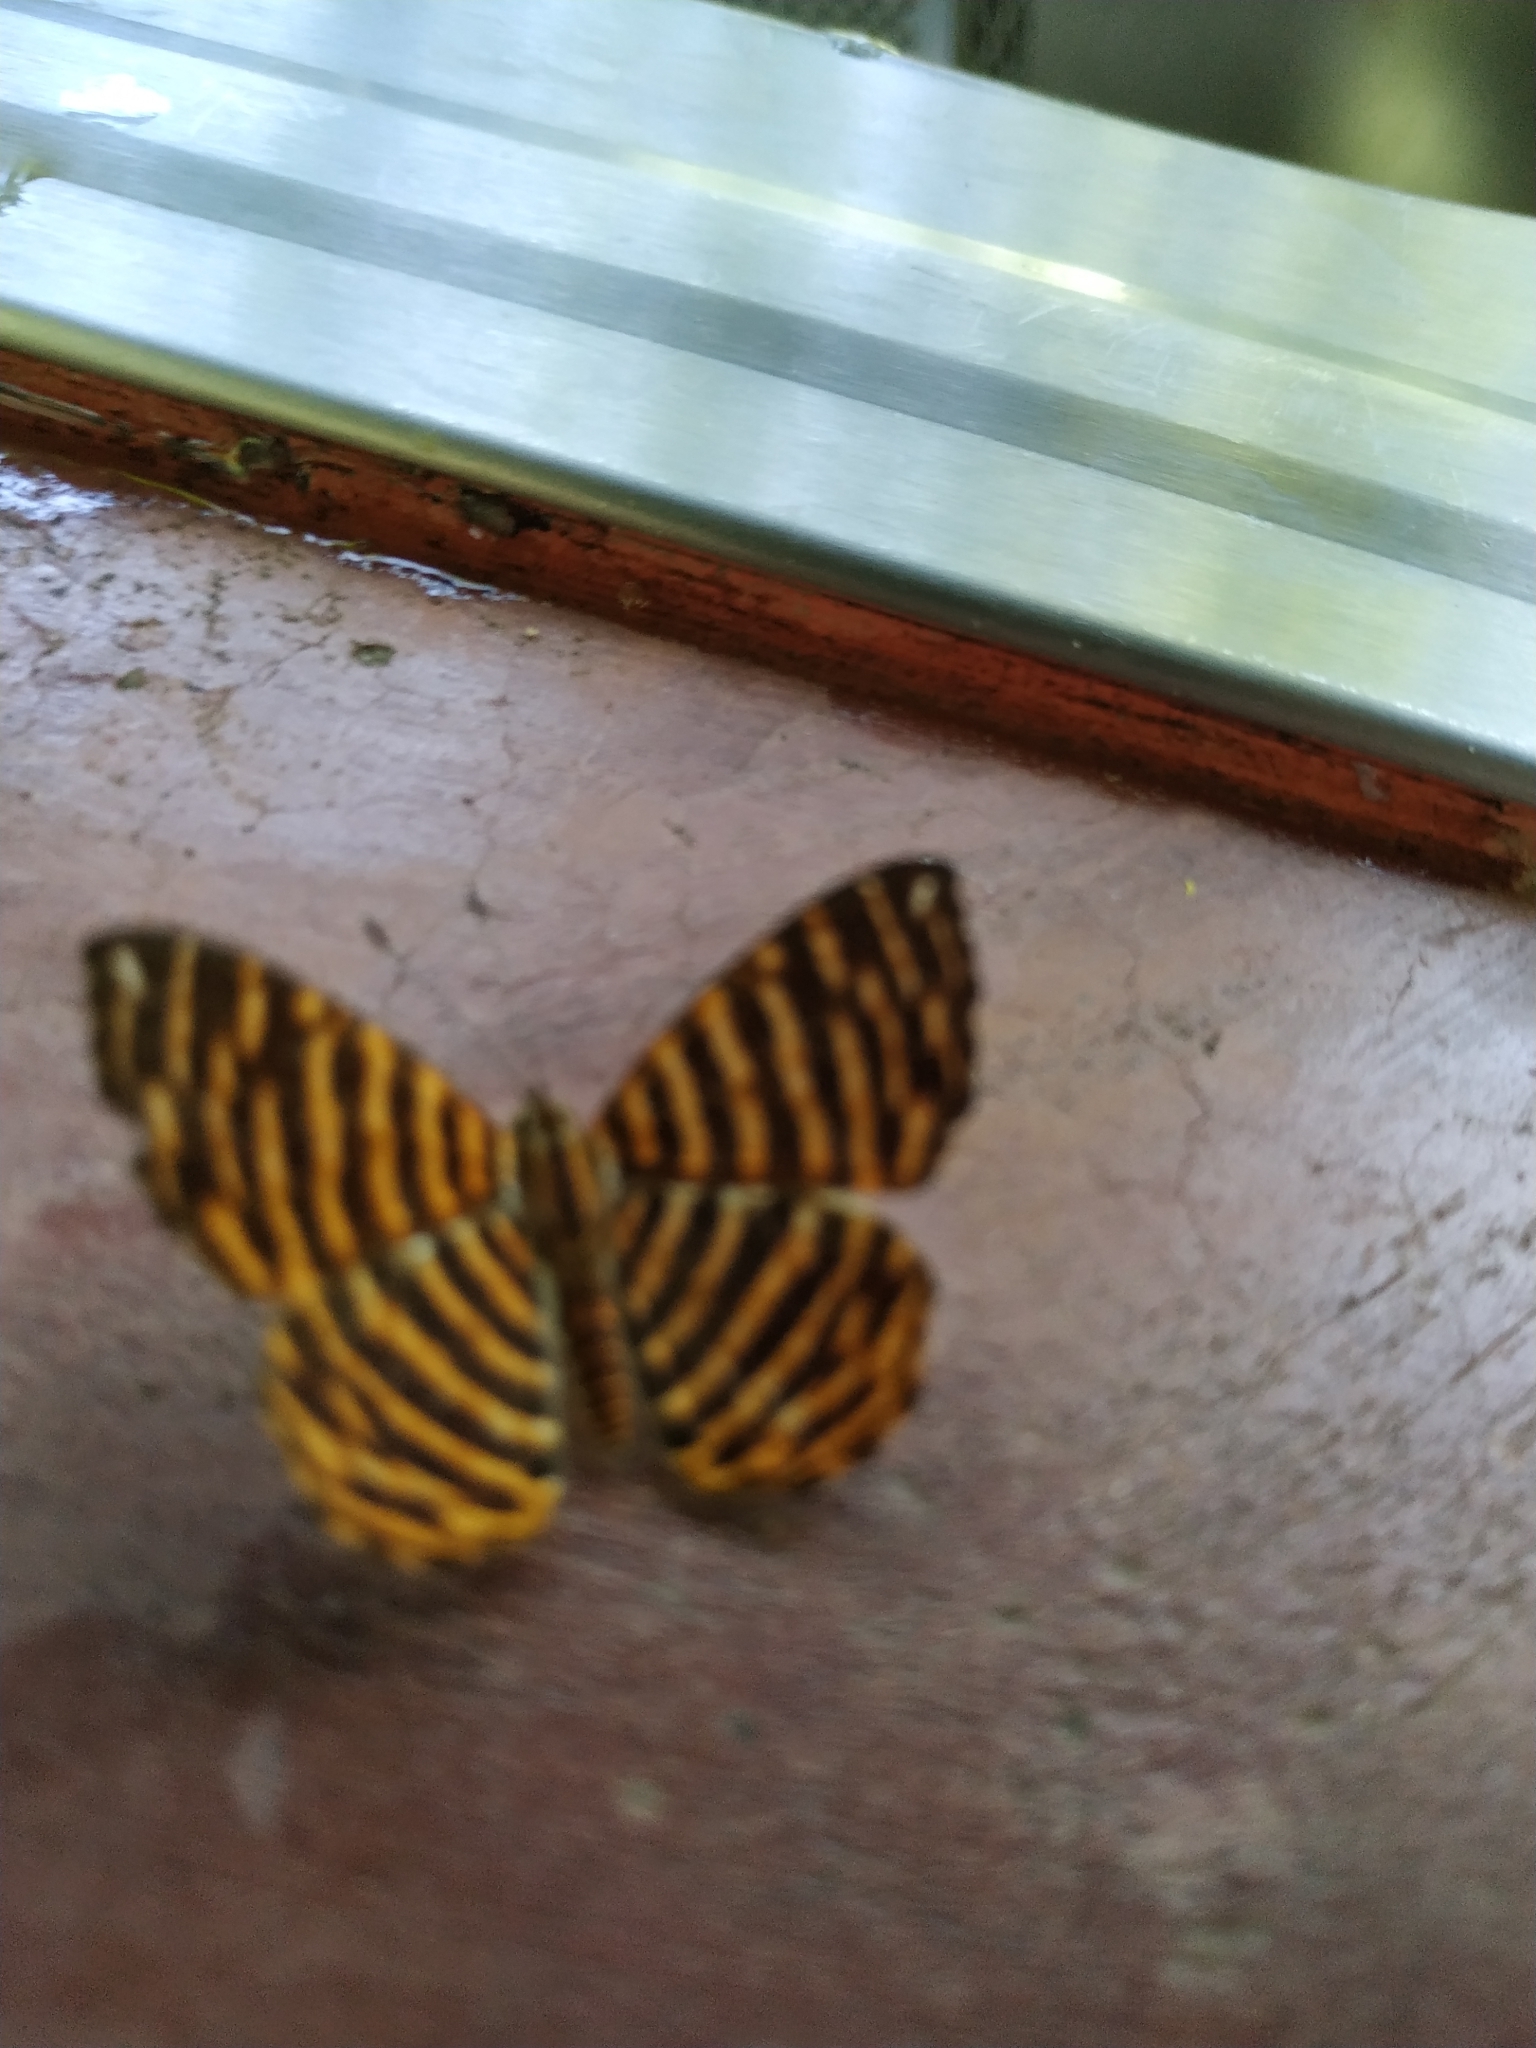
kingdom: Animalia
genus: Hyphilaria
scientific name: Hyphilaria thasus
